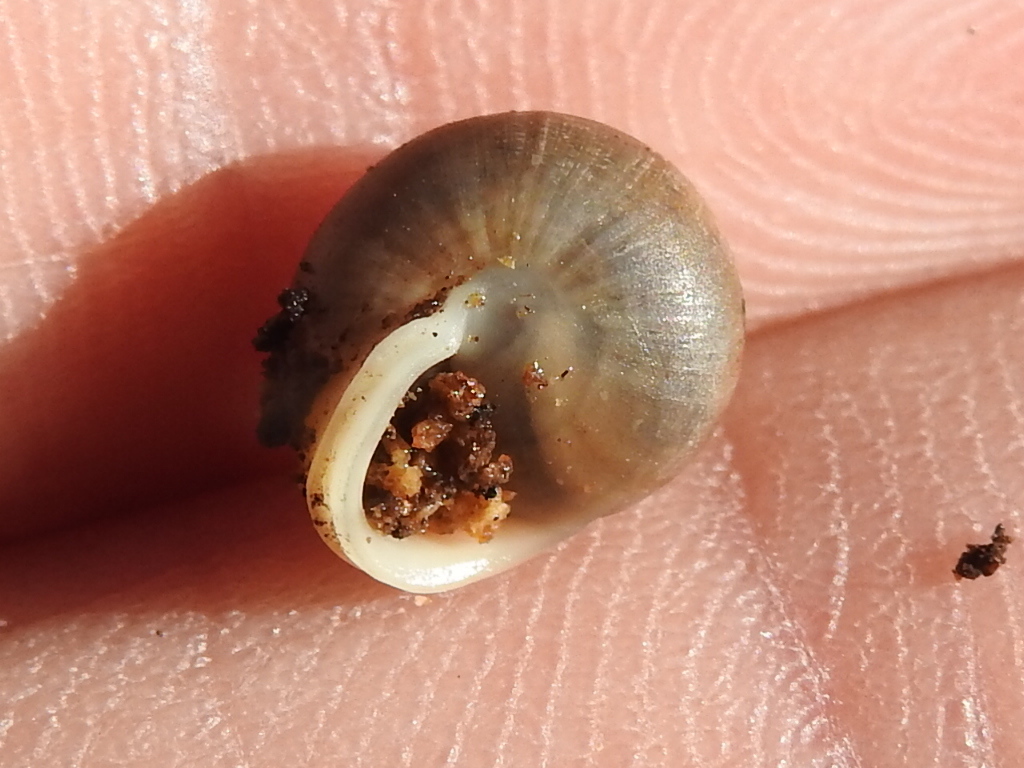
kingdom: Animalia
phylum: Mollusca
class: Gastropoda
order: Cycloneritida
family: Helicinidae
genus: Helicina
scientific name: Helicina orbiculata
